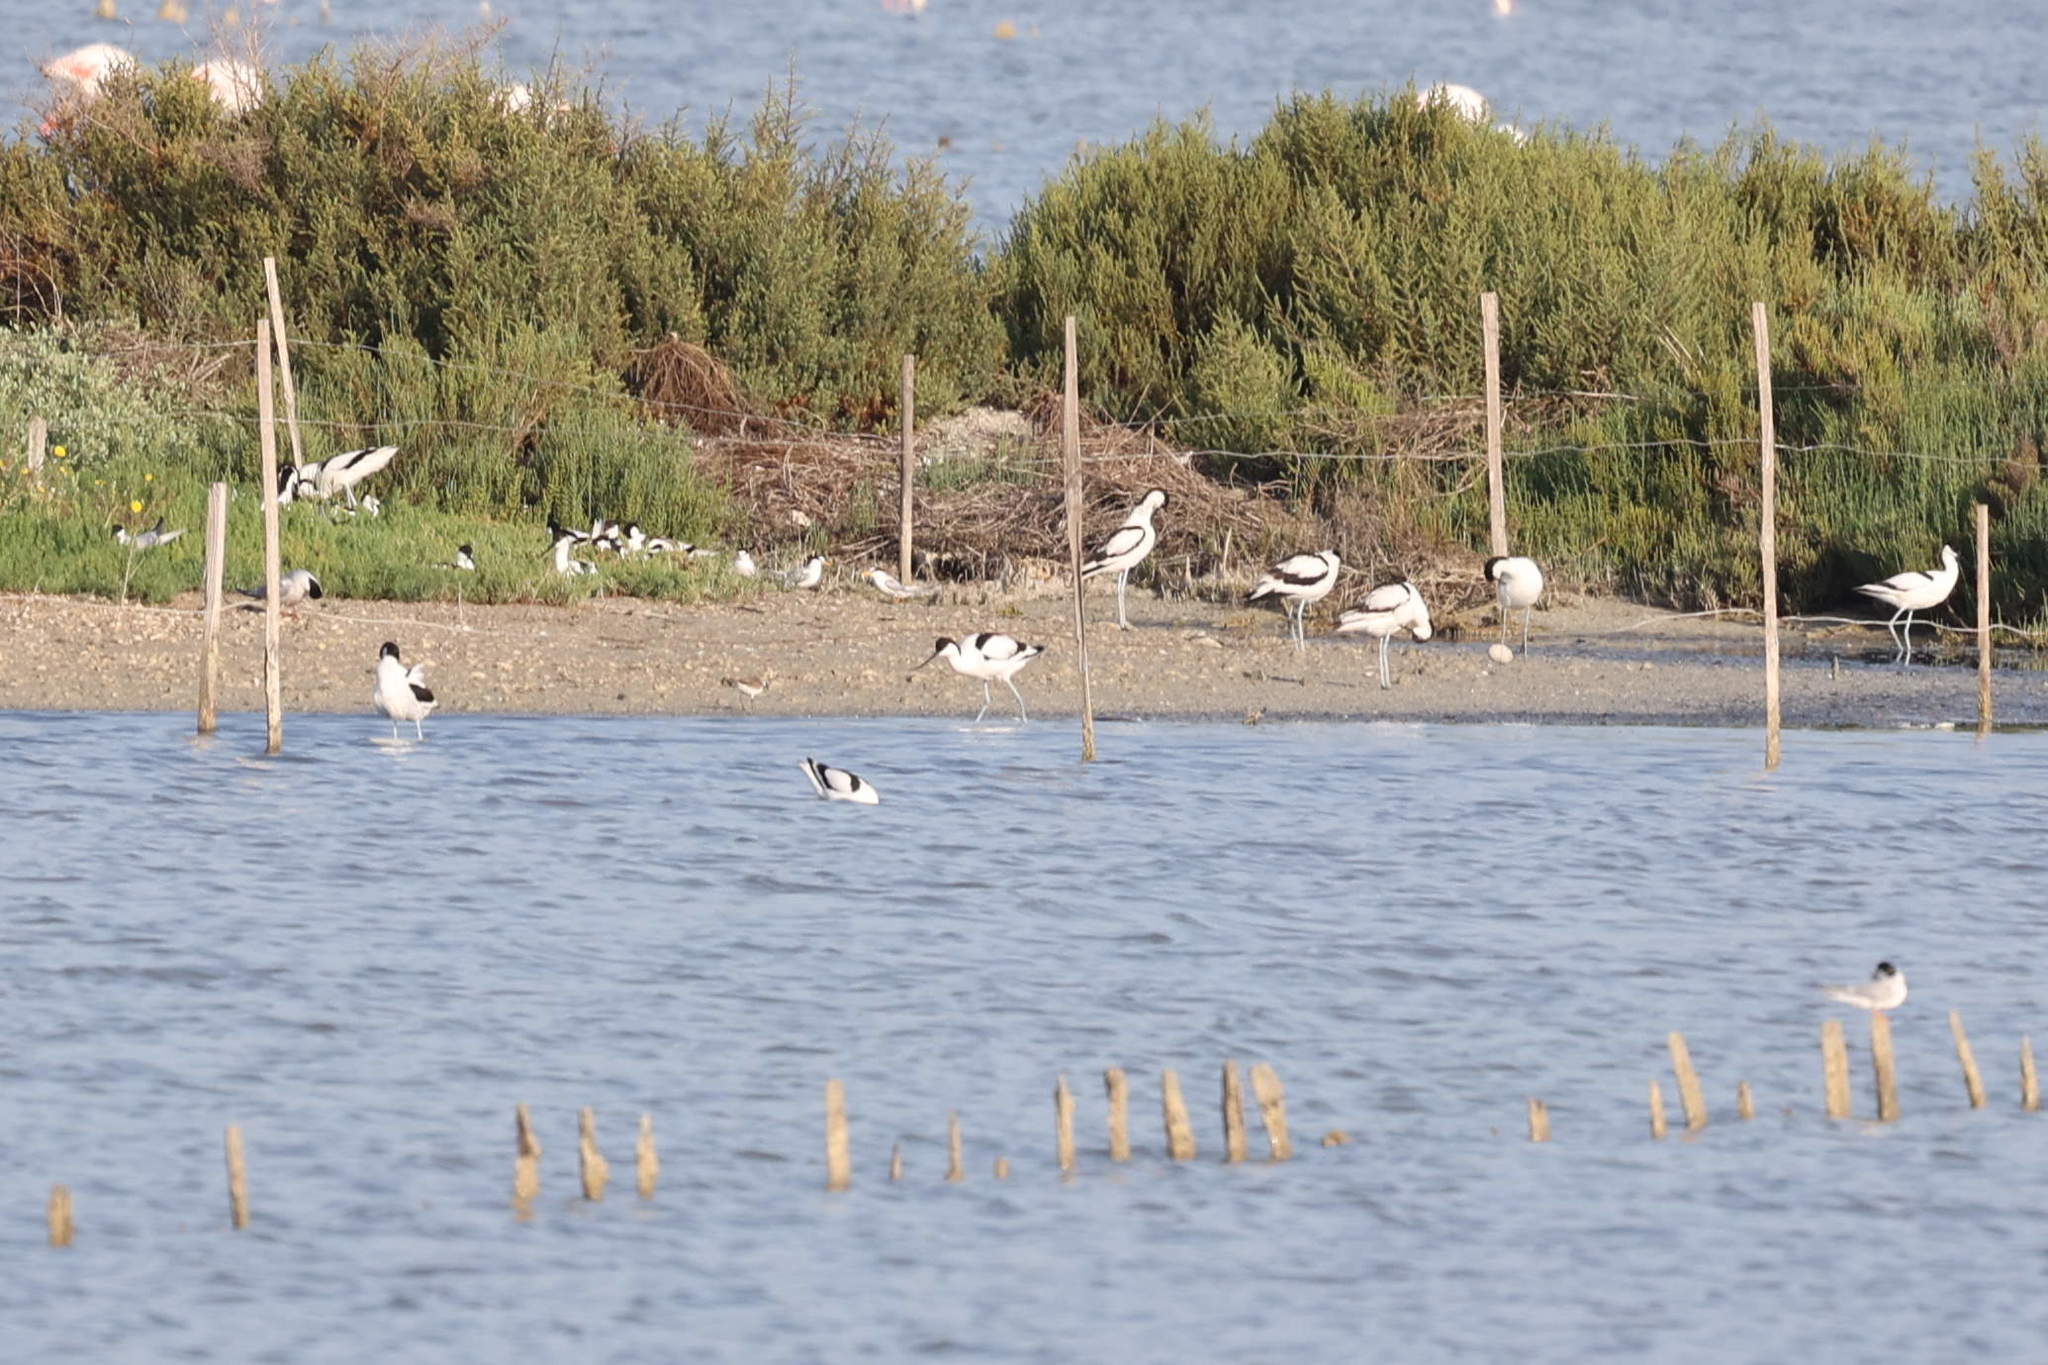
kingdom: Animalia
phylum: Chordata
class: Aves
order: Charadriiformes
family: Recurvirostridae
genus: Recurvirostra
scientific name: Recurvirostra avosetta
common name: Pied avocet
